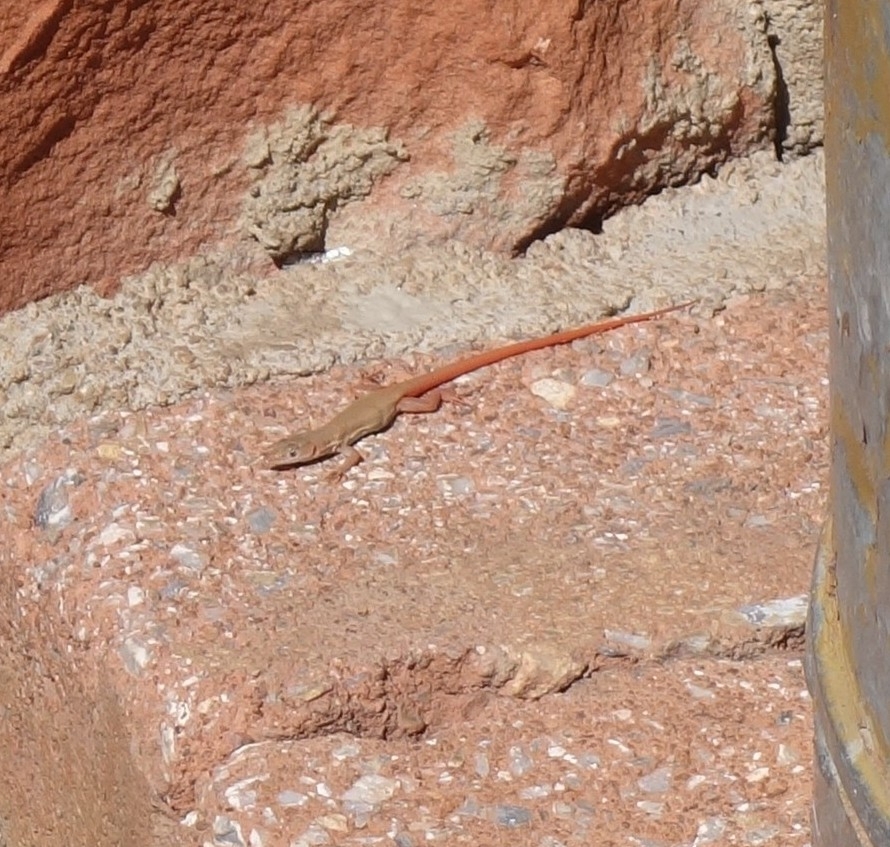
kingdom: Animalia
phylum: Chordata
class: Squamata
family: Lacertidae
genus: Pedioplanis
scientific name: Pedioplanis rubens
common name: Ruben's sand lizard
